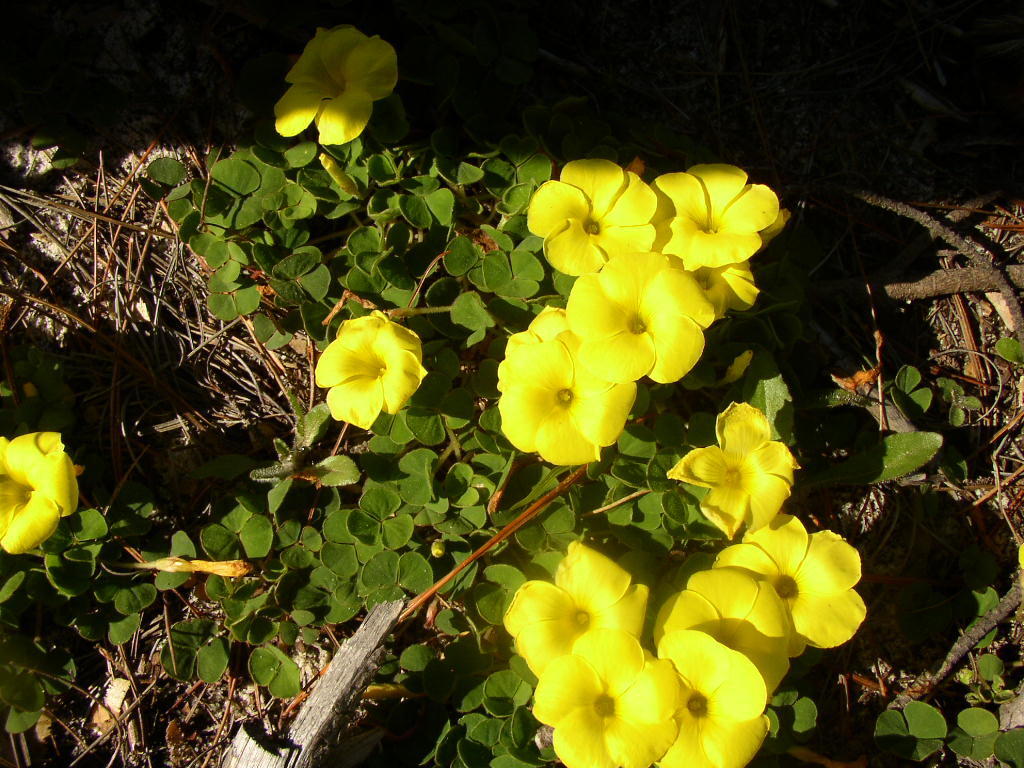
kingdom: Plantae
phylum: Tracheophyta
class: Magnoliopsida
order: Oxalidales
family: Oxalidaceae
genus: Oxalis
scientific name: Oxalis luteola
